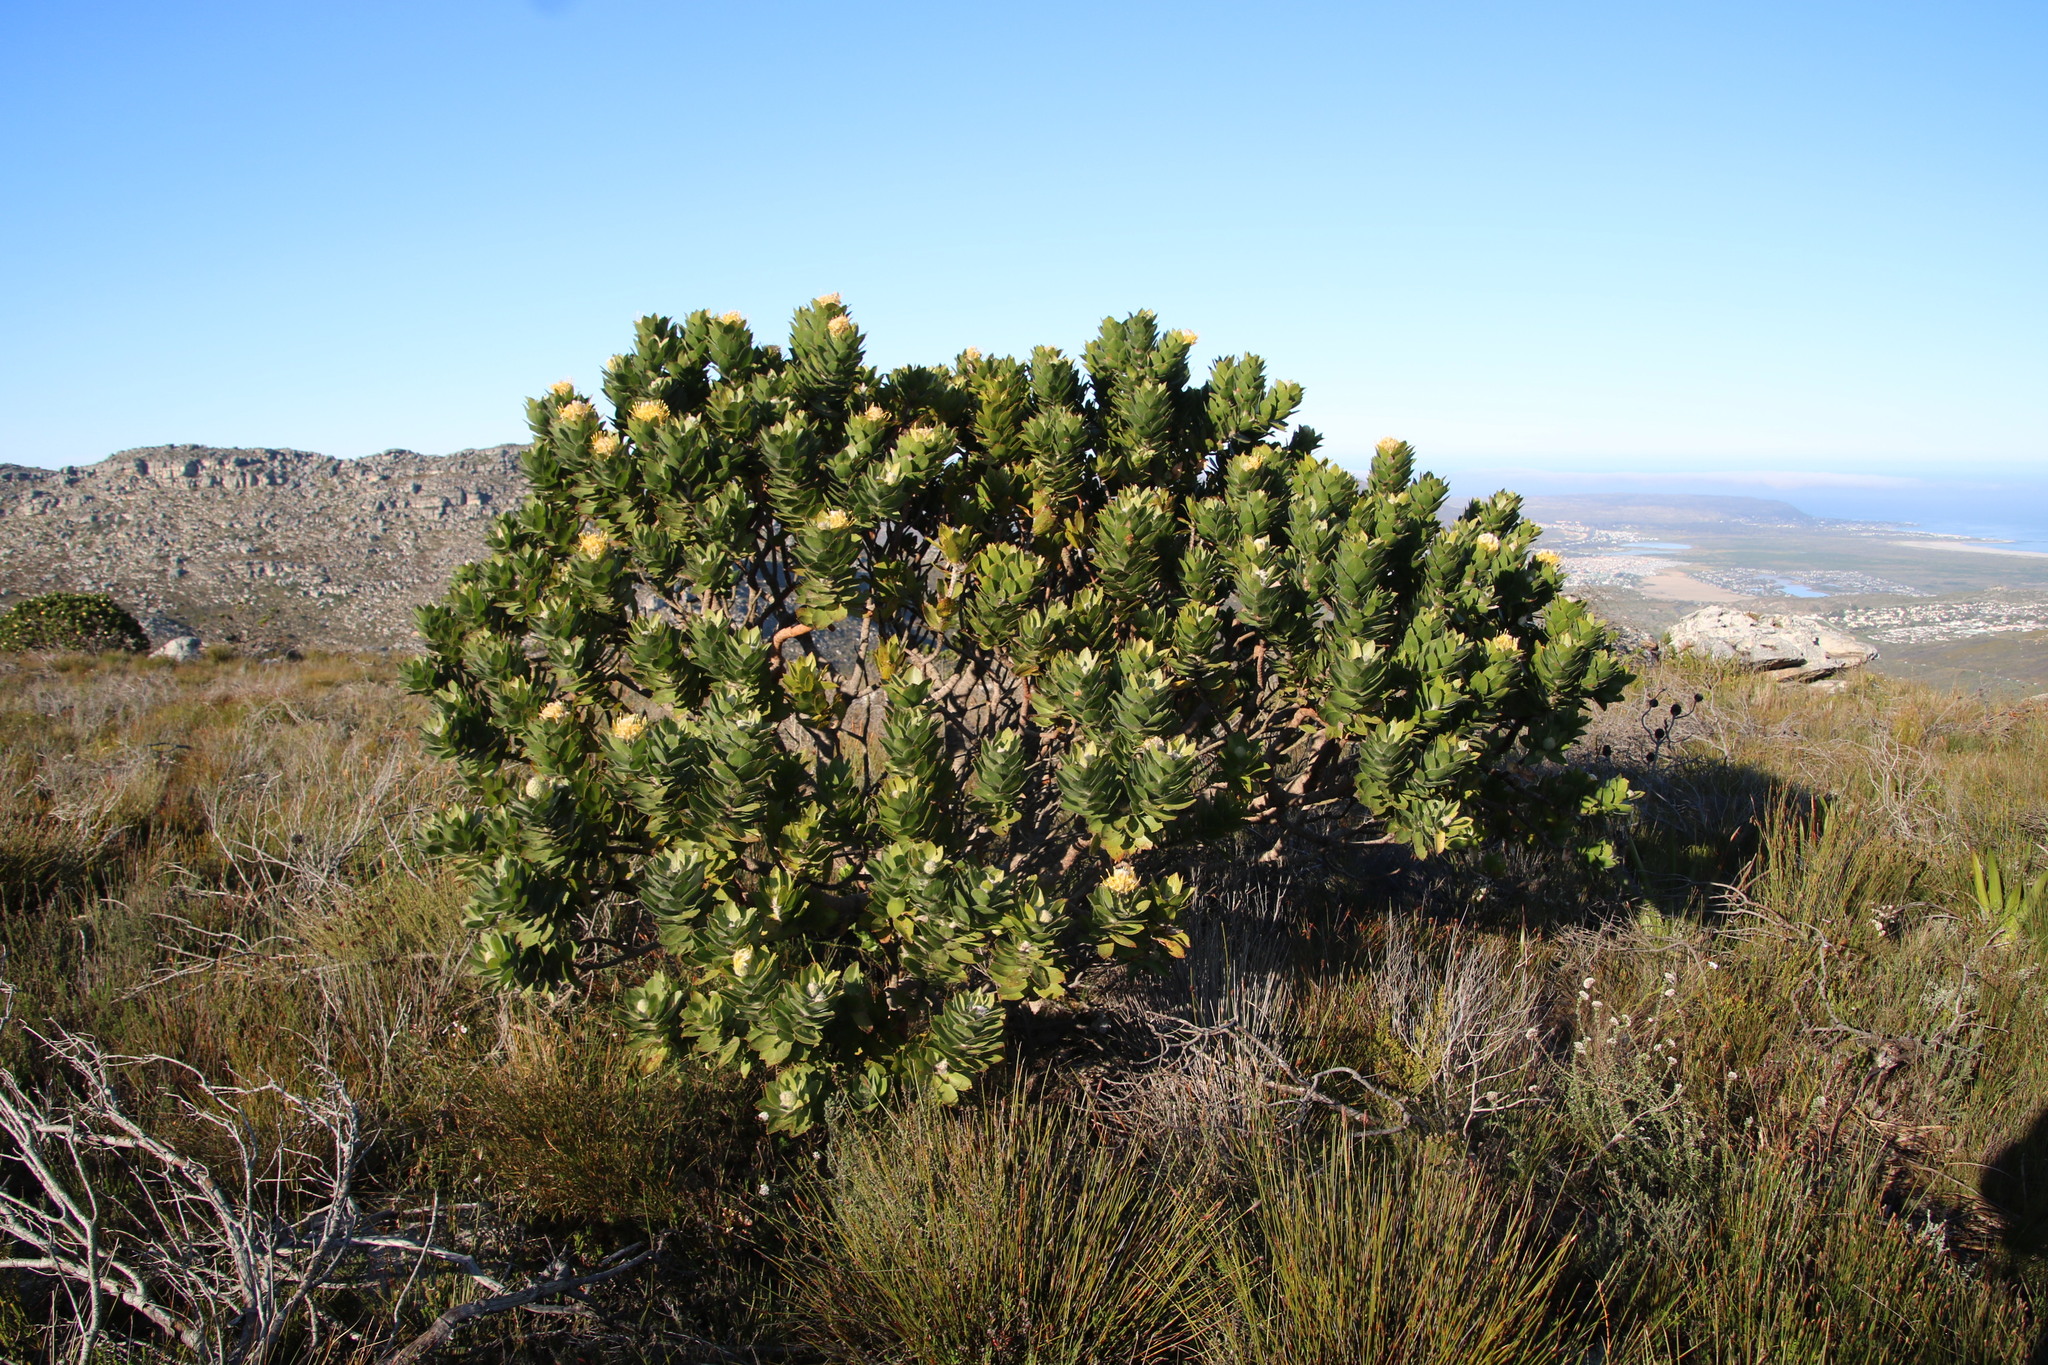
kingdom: Plantae
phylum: Tracheophyta
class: Magnoliopsida
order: Proteales
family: Proteaceae
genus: Leucospermum
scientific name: Leucospermum conocarpodendron
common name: Tree pincushion
